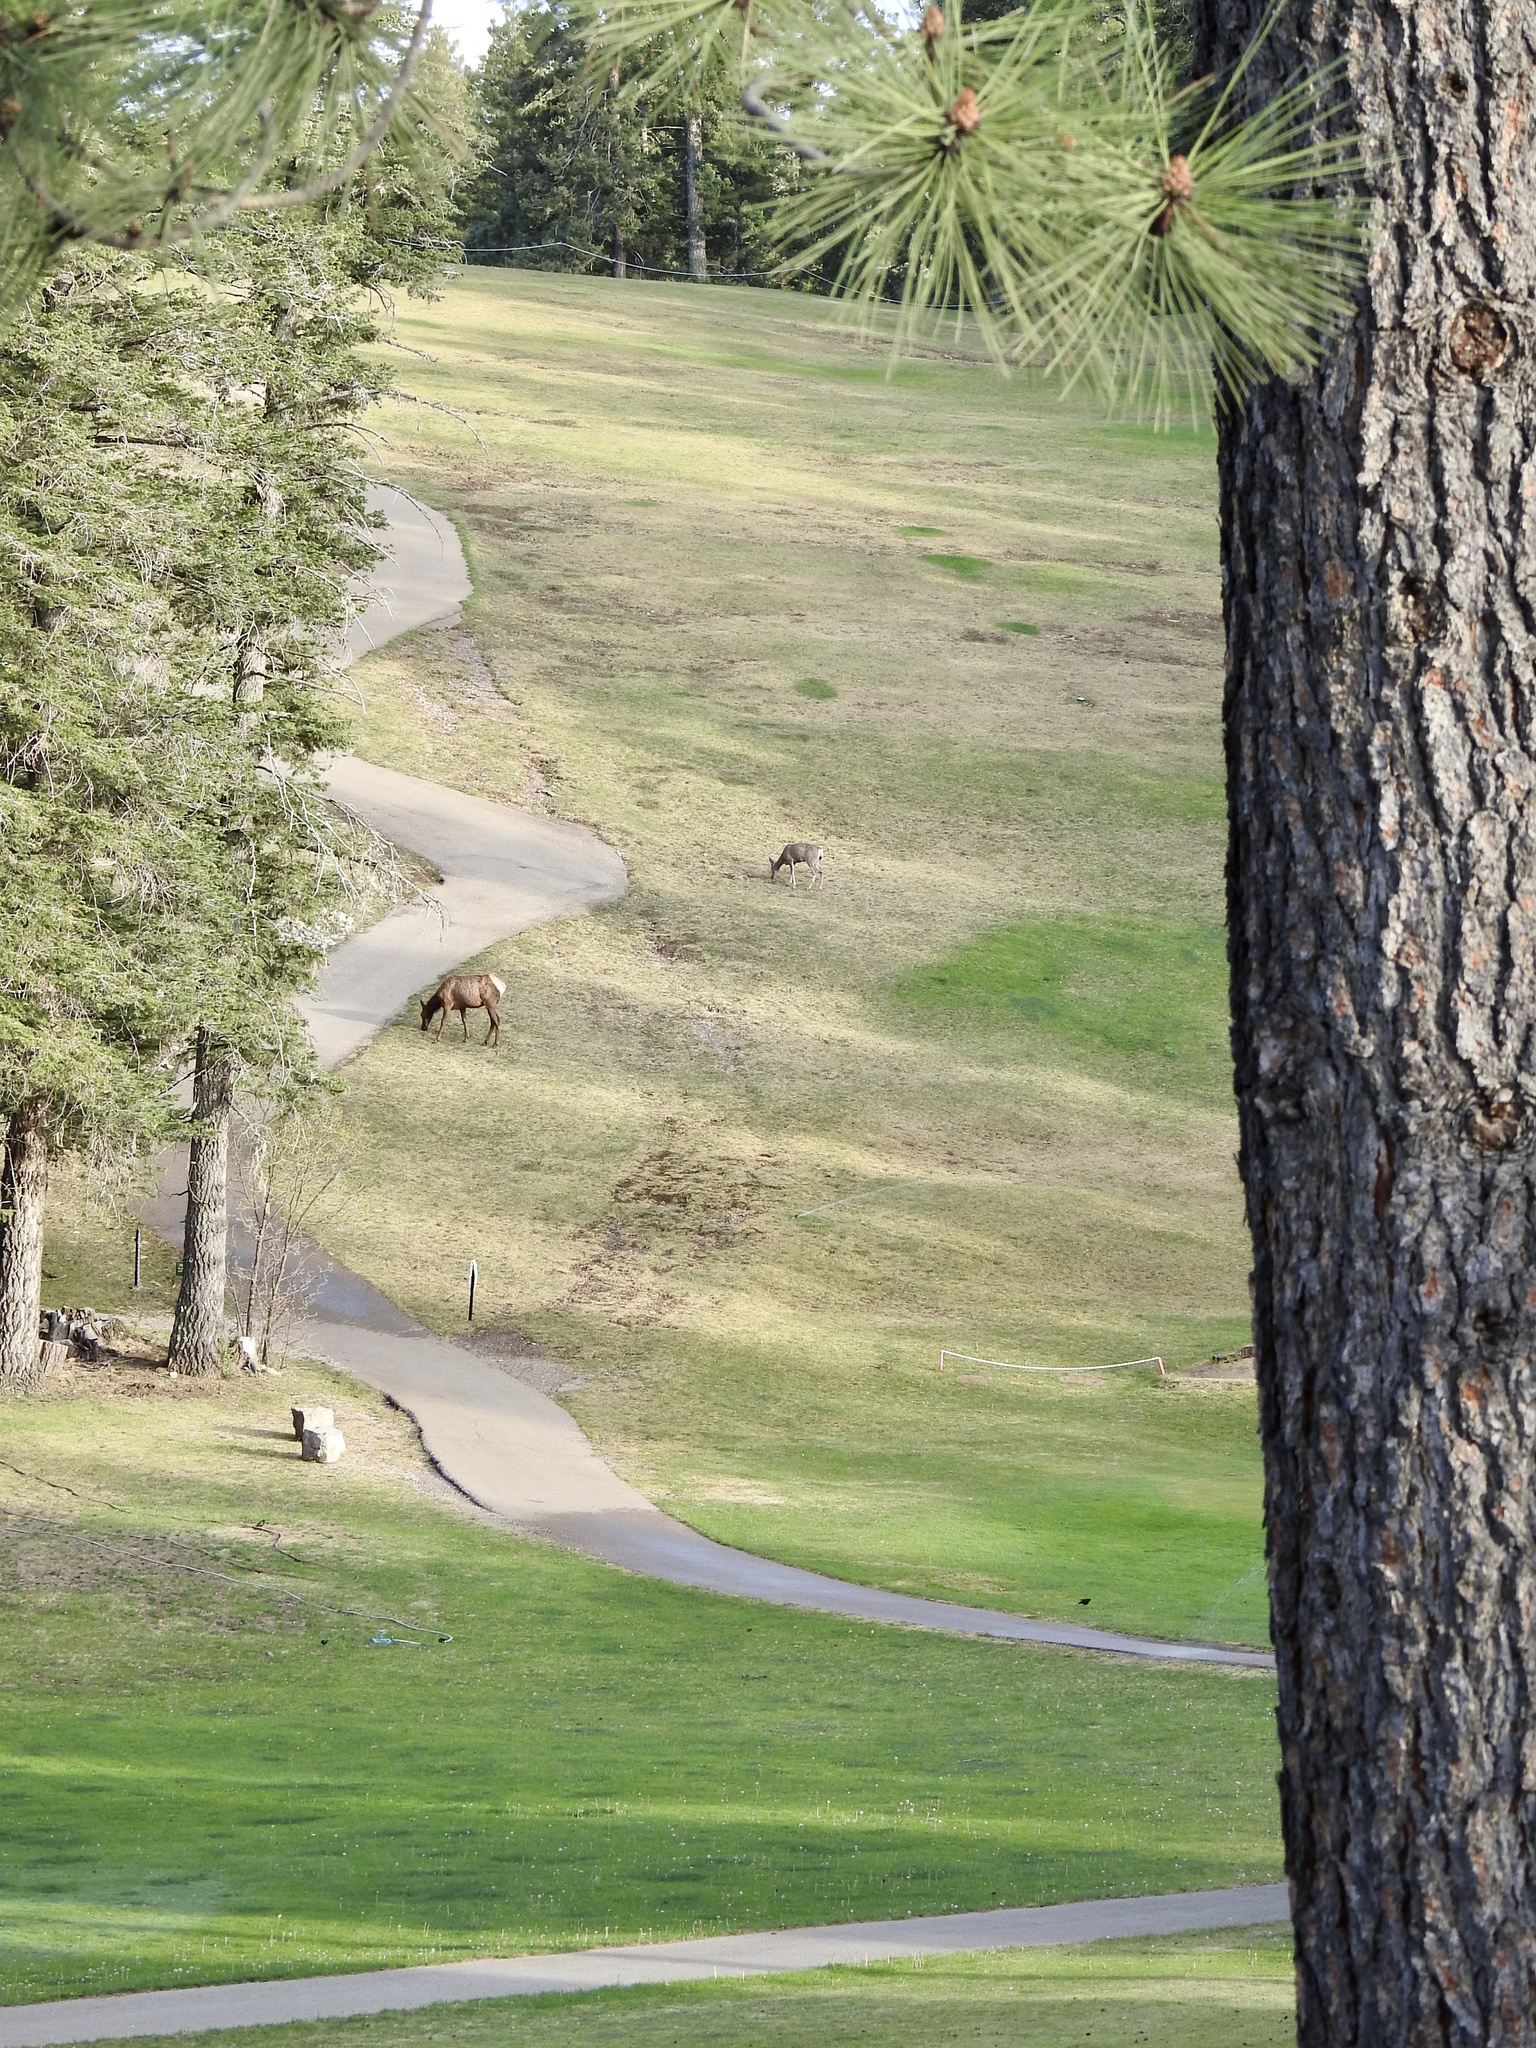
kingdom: Animalia
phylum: Chordata
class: Mammalia
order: Artiodactyla
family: Cervidae
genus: Odocoileus
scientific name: Odocoileus hemionus
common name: Mule deer
